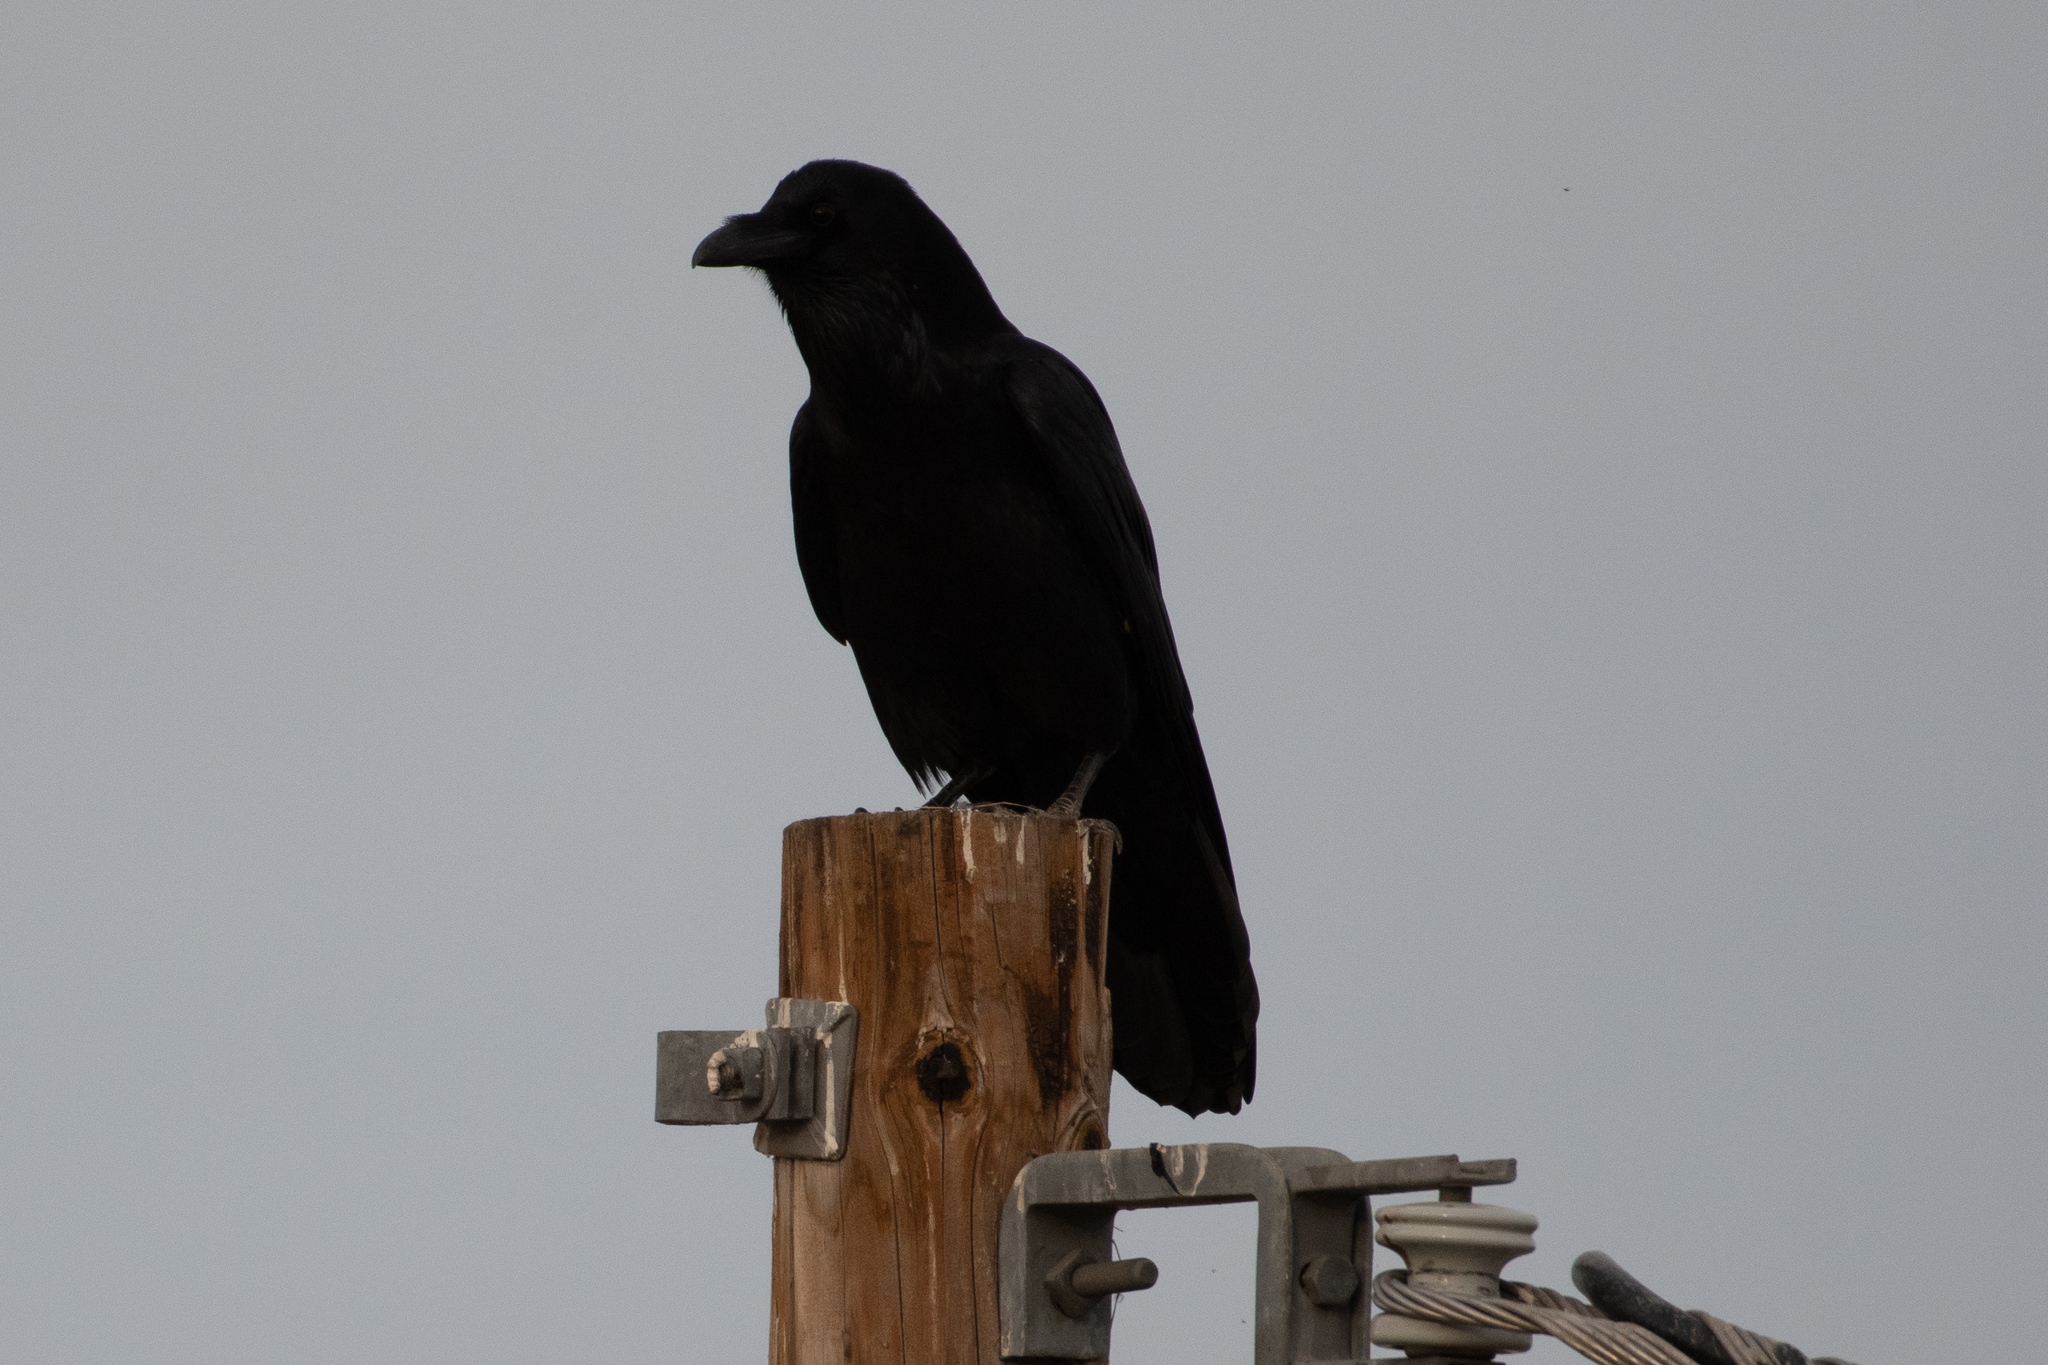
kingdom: Animalia
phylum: Chordata
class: Aves
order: Passeriformes
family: Corvidae
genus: Corvus
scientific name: Corvus corax
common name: Common raven
